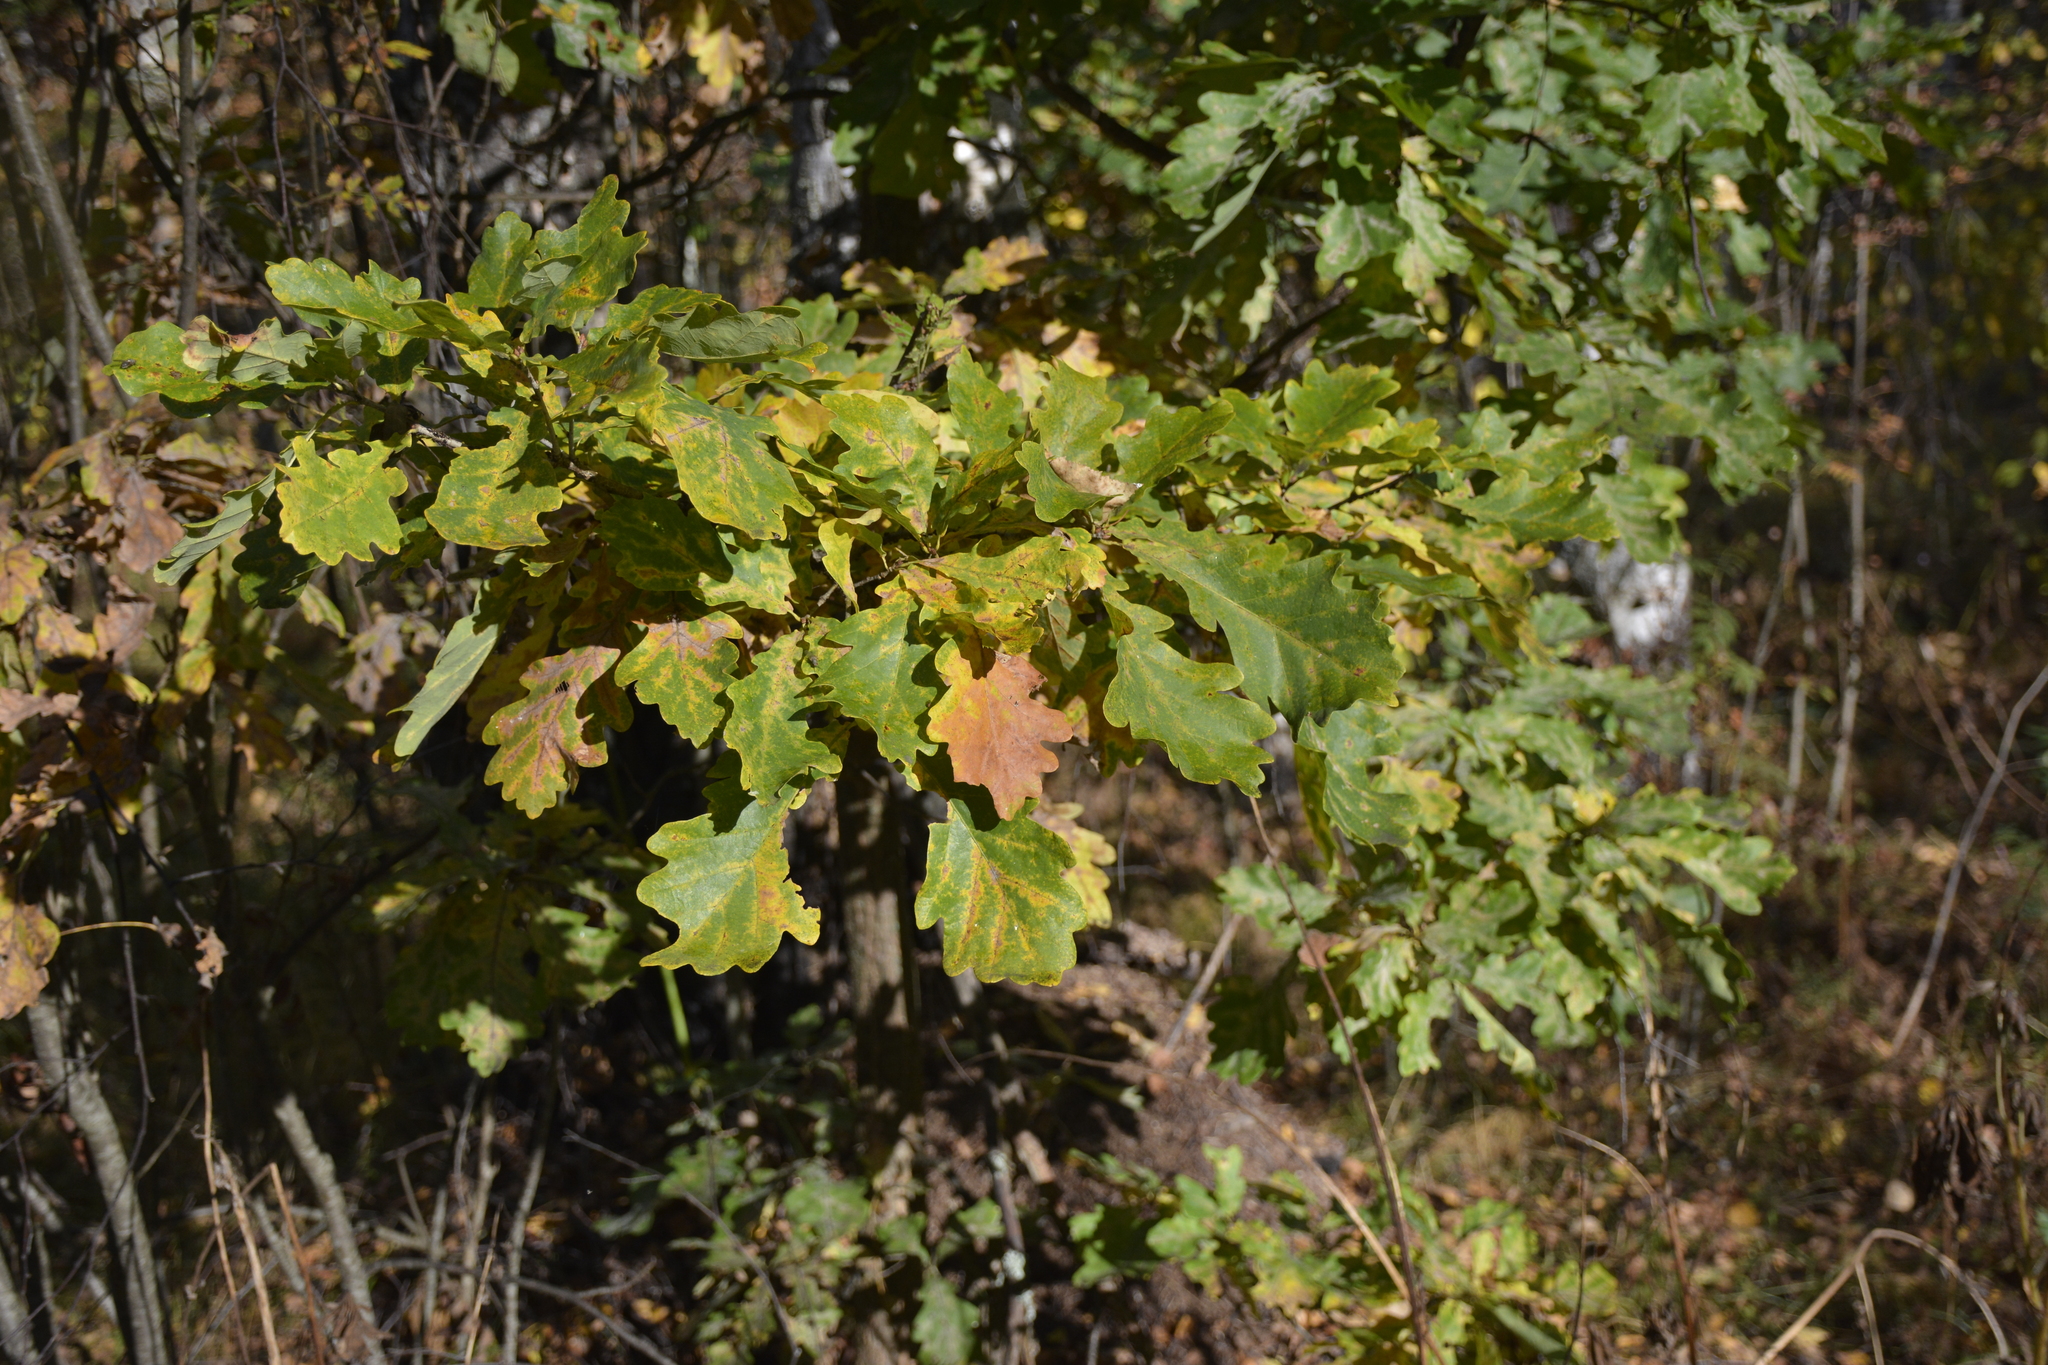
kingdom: Plantae
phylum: Tracheophyta
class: Magnoliopsida
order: Fagales
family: Fagaceae
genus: Quercus
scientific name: Quercus robur
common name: Pedunculate oak
